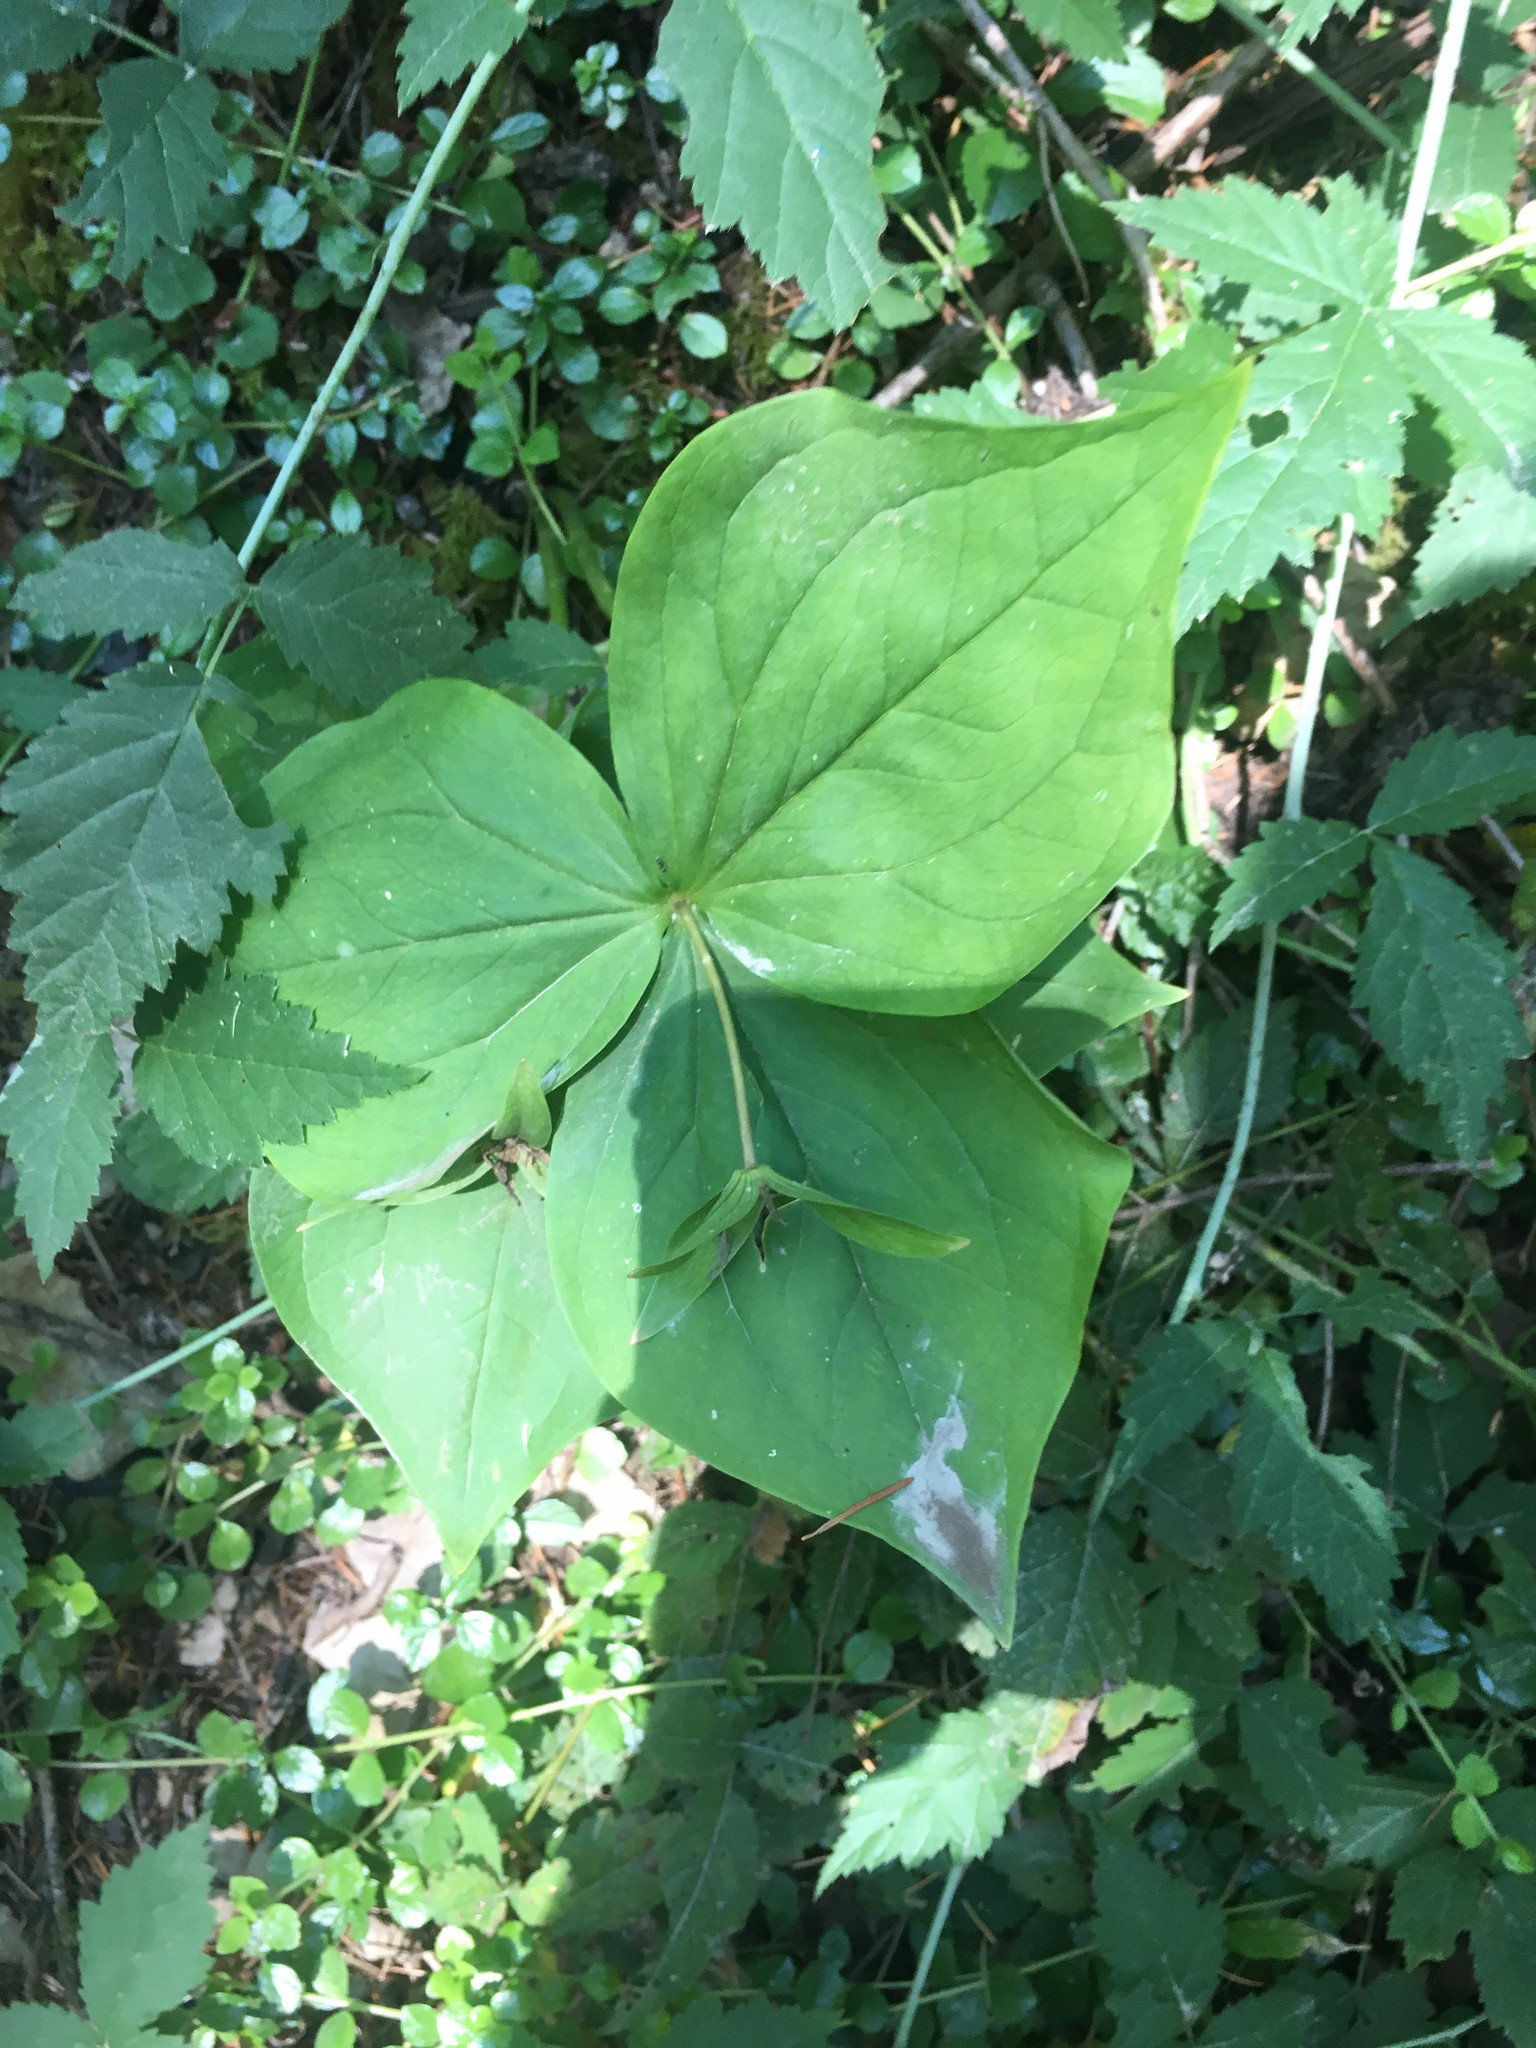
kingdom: Plantae
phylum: Tracheophyta
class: Liliopsida
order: Liliales
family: Melanthiaceae
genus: Trillium
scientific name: Trillium ovatum
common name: Pacific trillium
